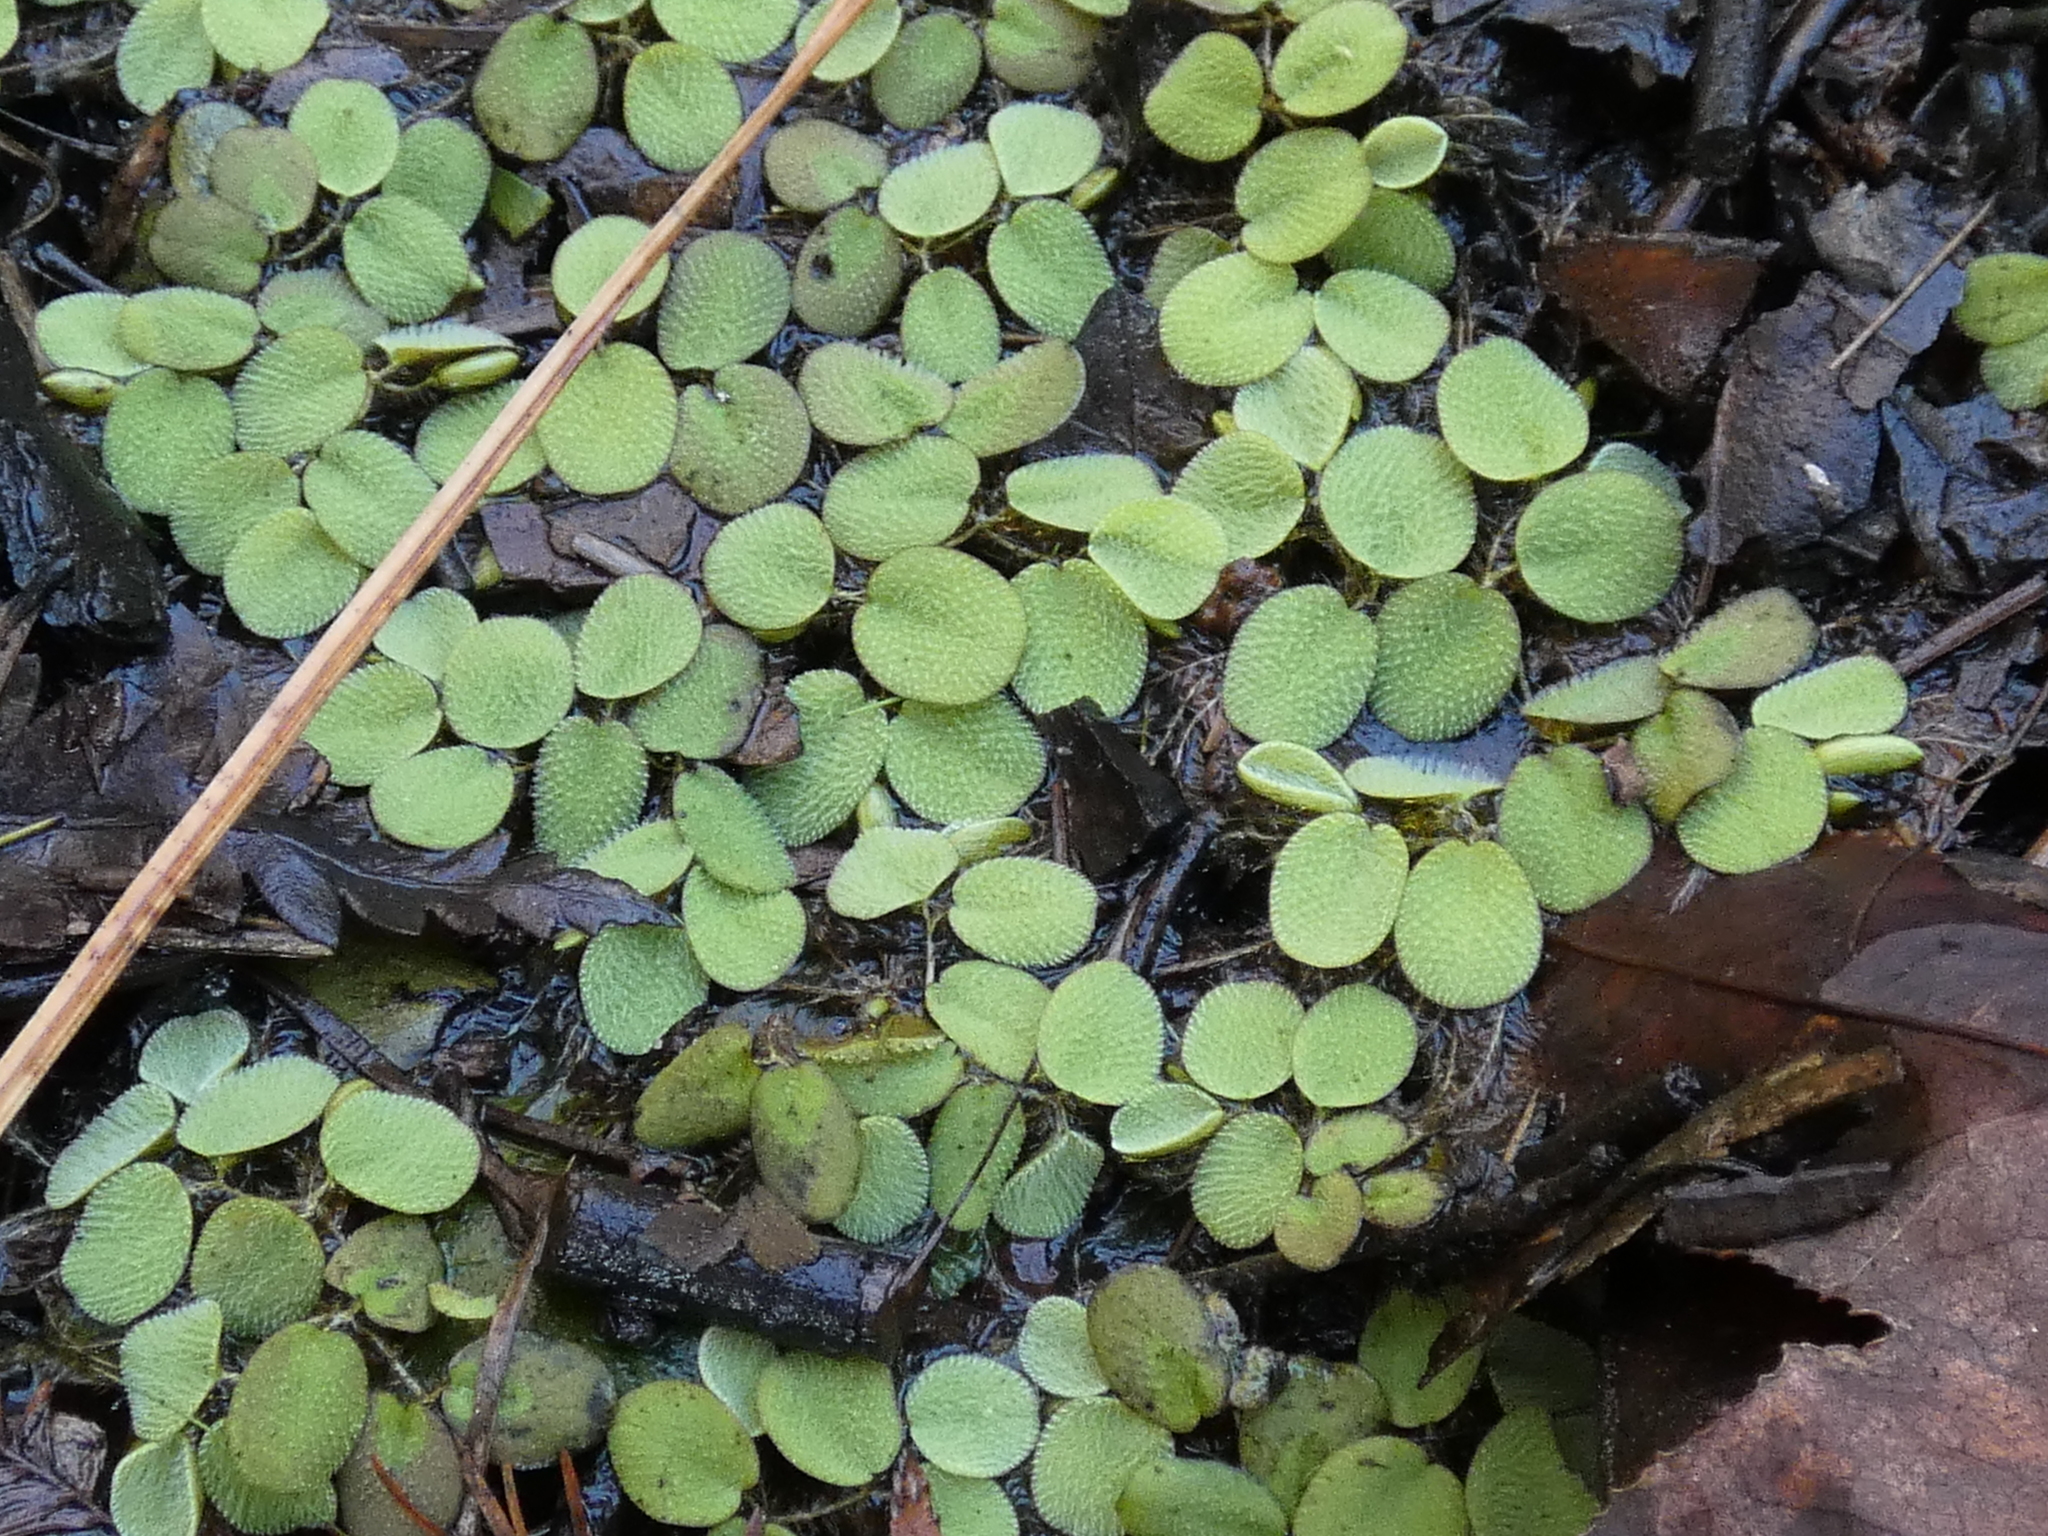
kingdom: Plantae
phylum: Tracheophyta
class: Polypodiopsida
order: Salviniales
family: Salviniaceae
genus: Salvinia
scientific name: Salvinia minima
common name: Water spangles
